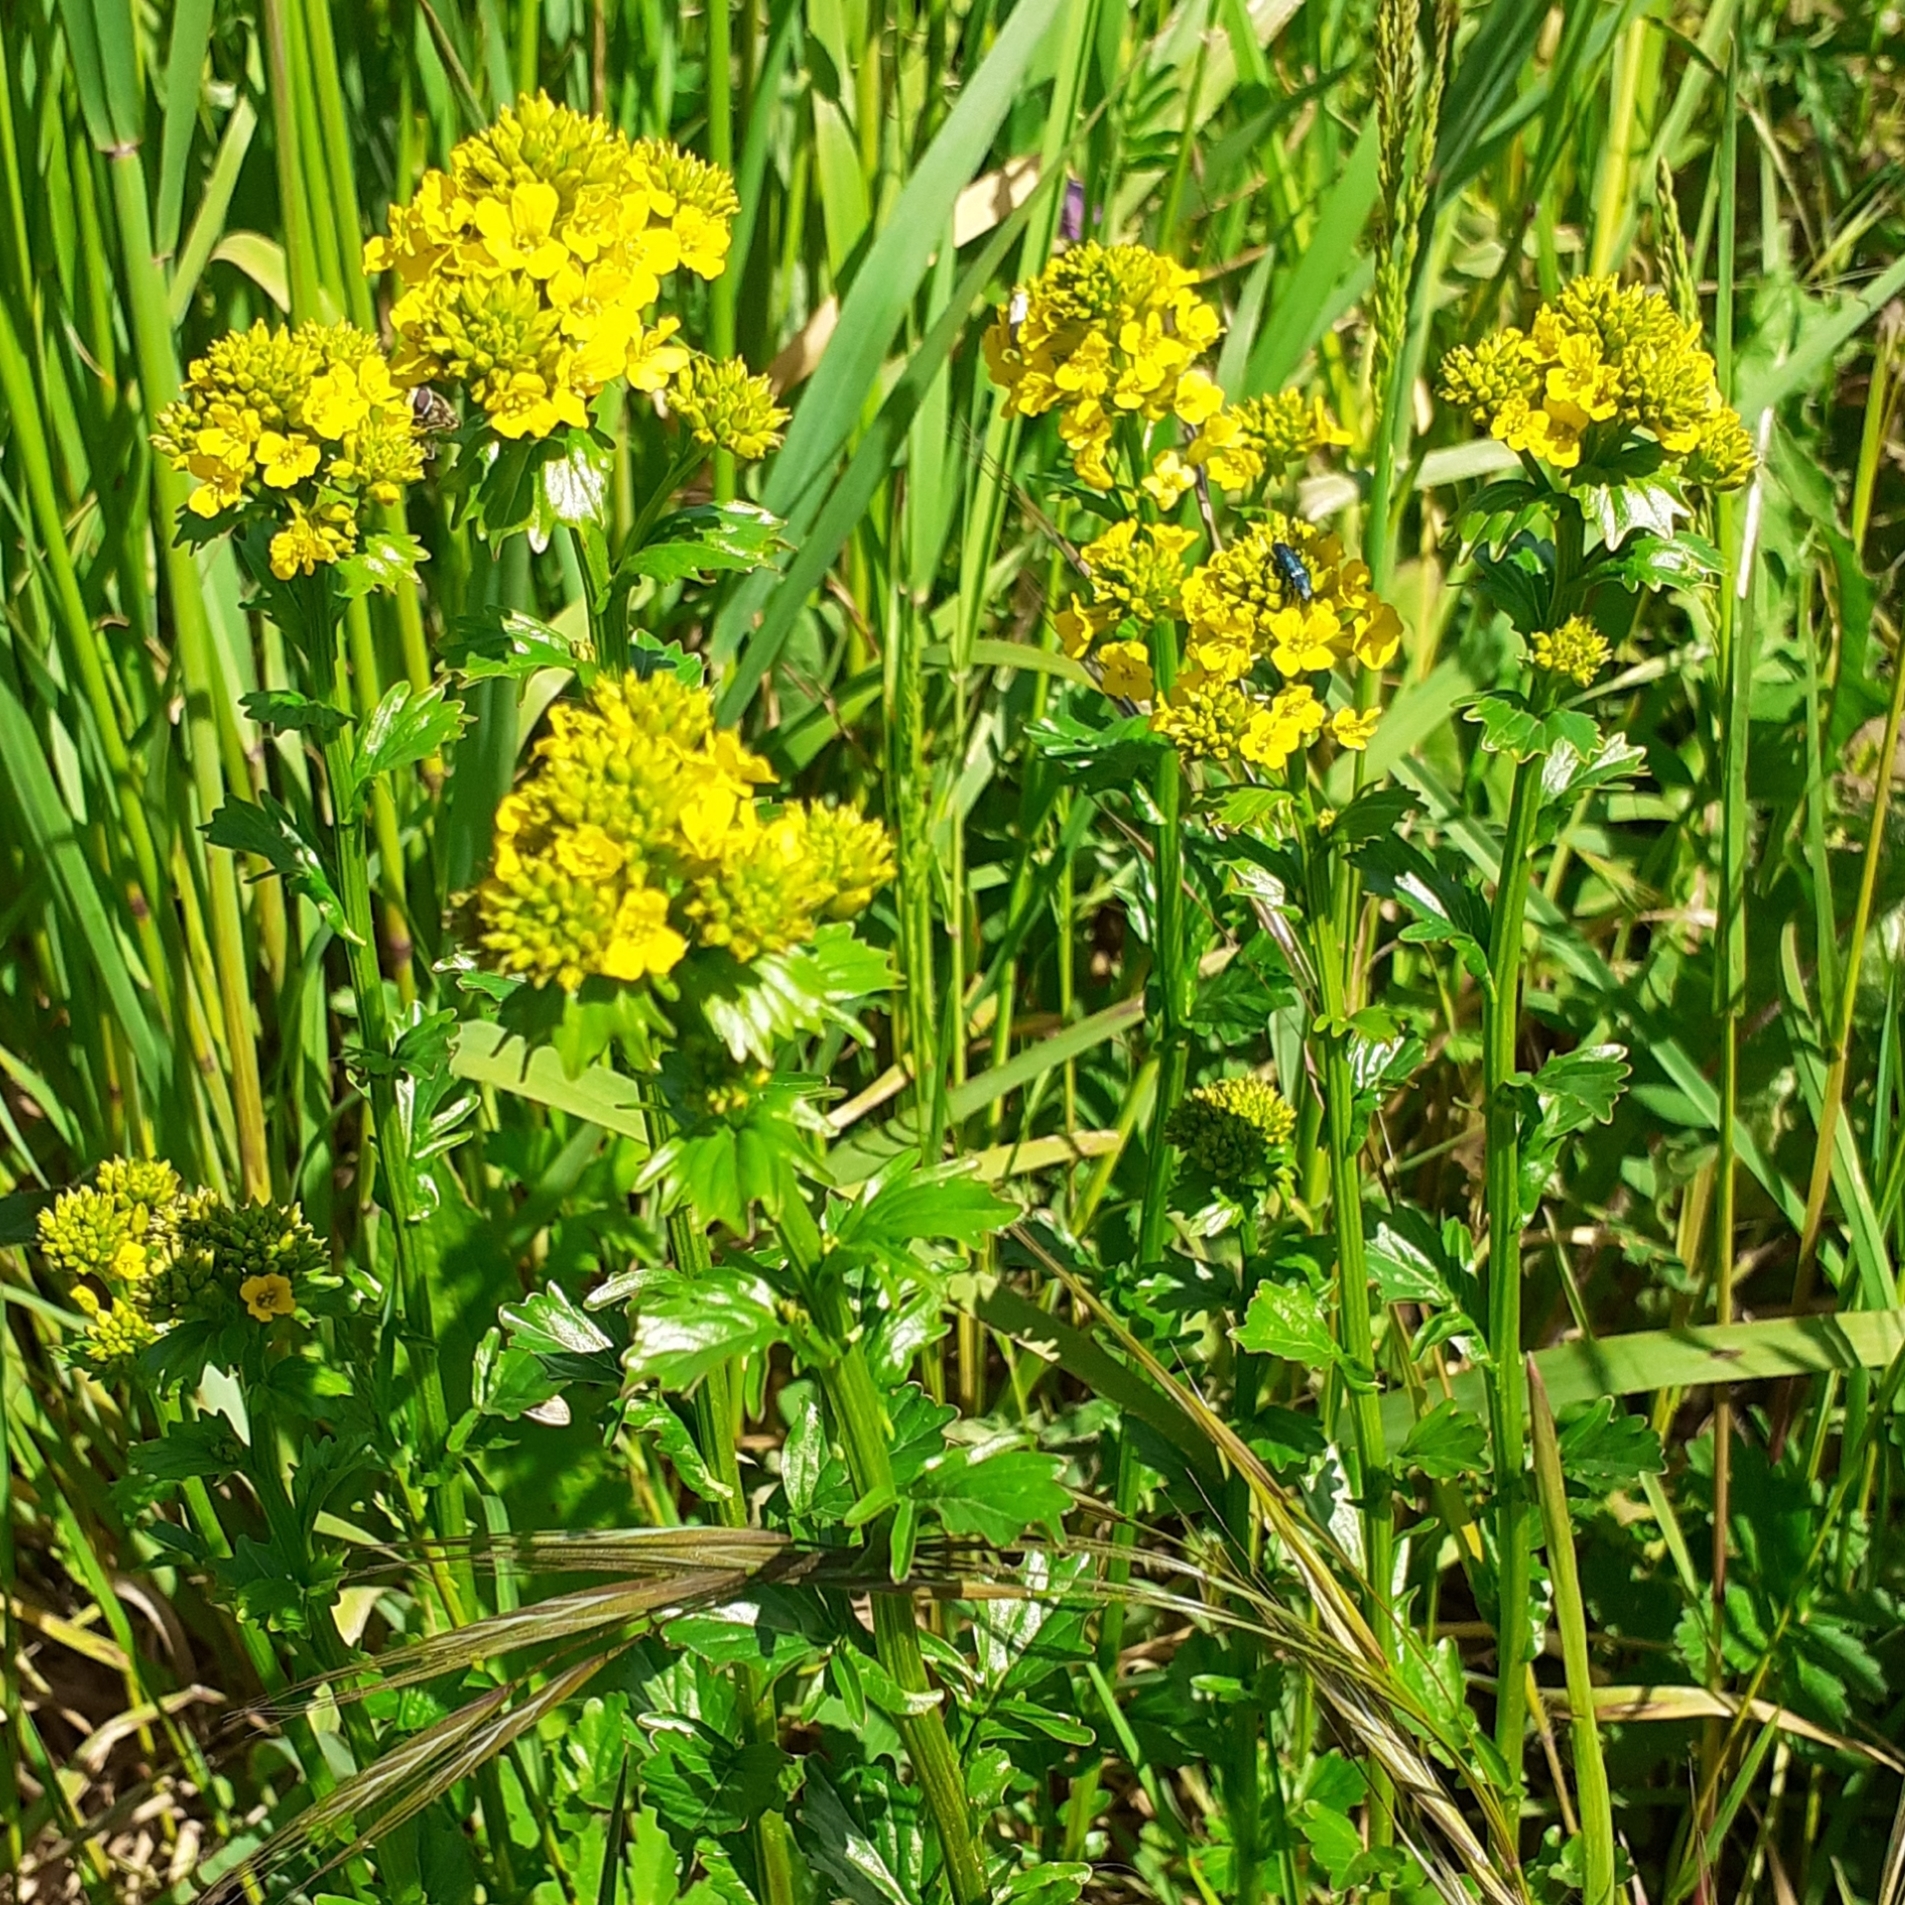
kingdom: Plantae
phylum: Tracheophyta
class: Magnoliopsida
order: Brassicales
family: Brassicaceae
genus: Barbarea
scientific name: Barbarea vulgaris
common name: Cressy-greens
